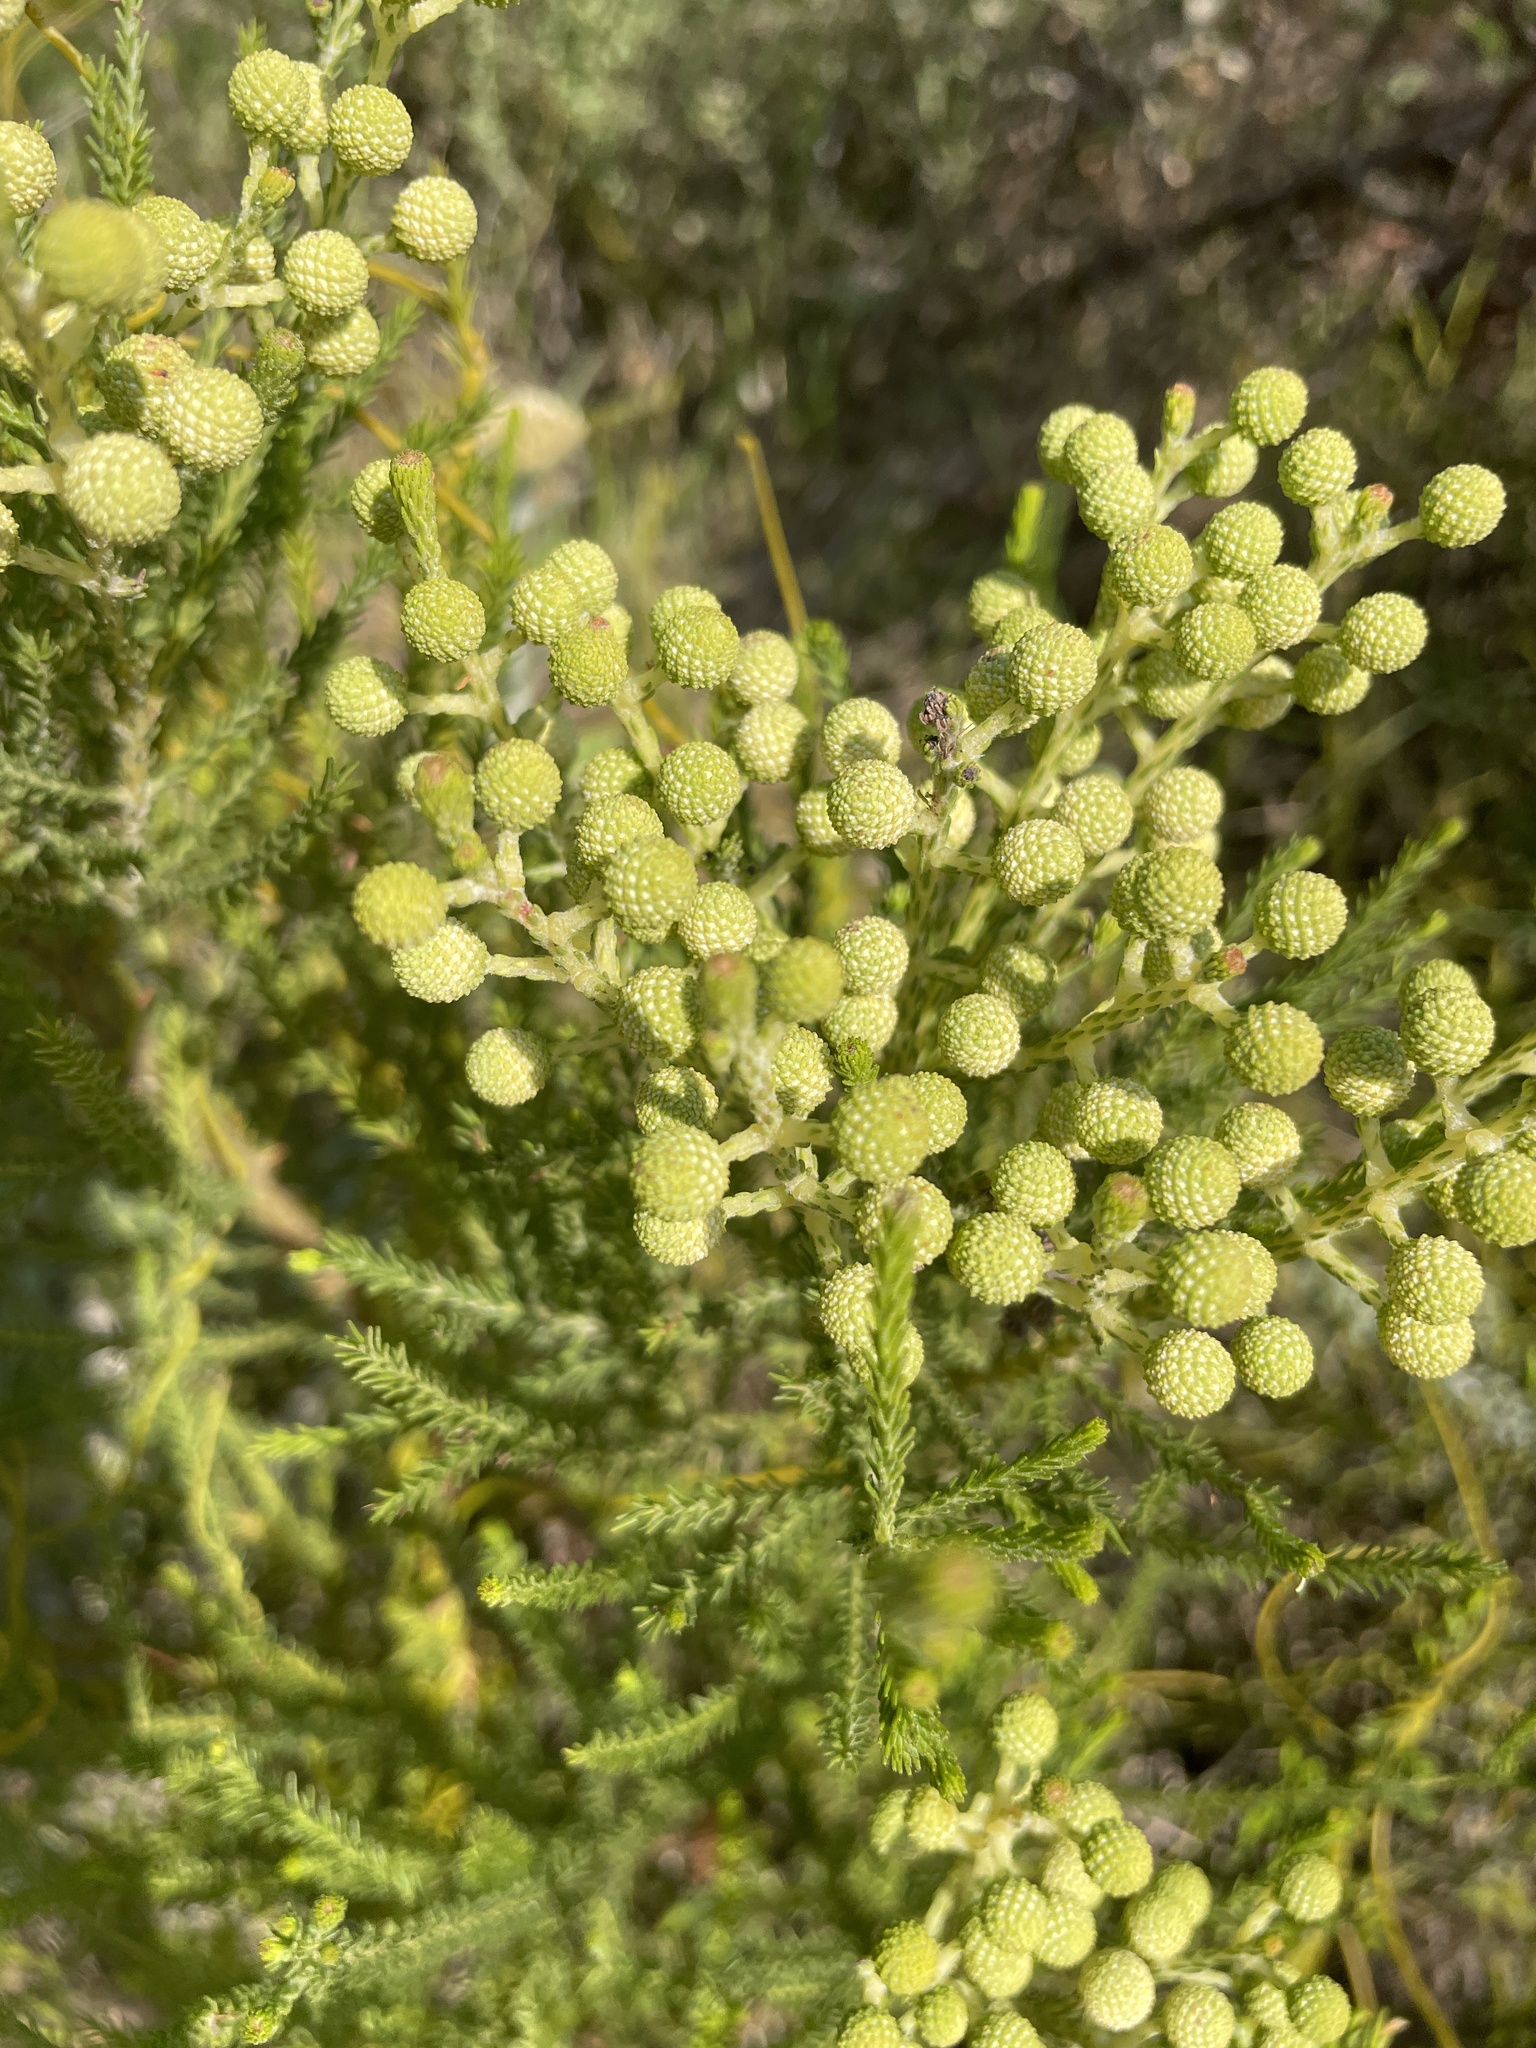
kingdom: Plantae
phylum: Tracheophyta
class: Magnoliopsida
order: Bruniales
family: Bruniaceae
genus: Berzelia
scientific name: Berzelia lanuginosa
